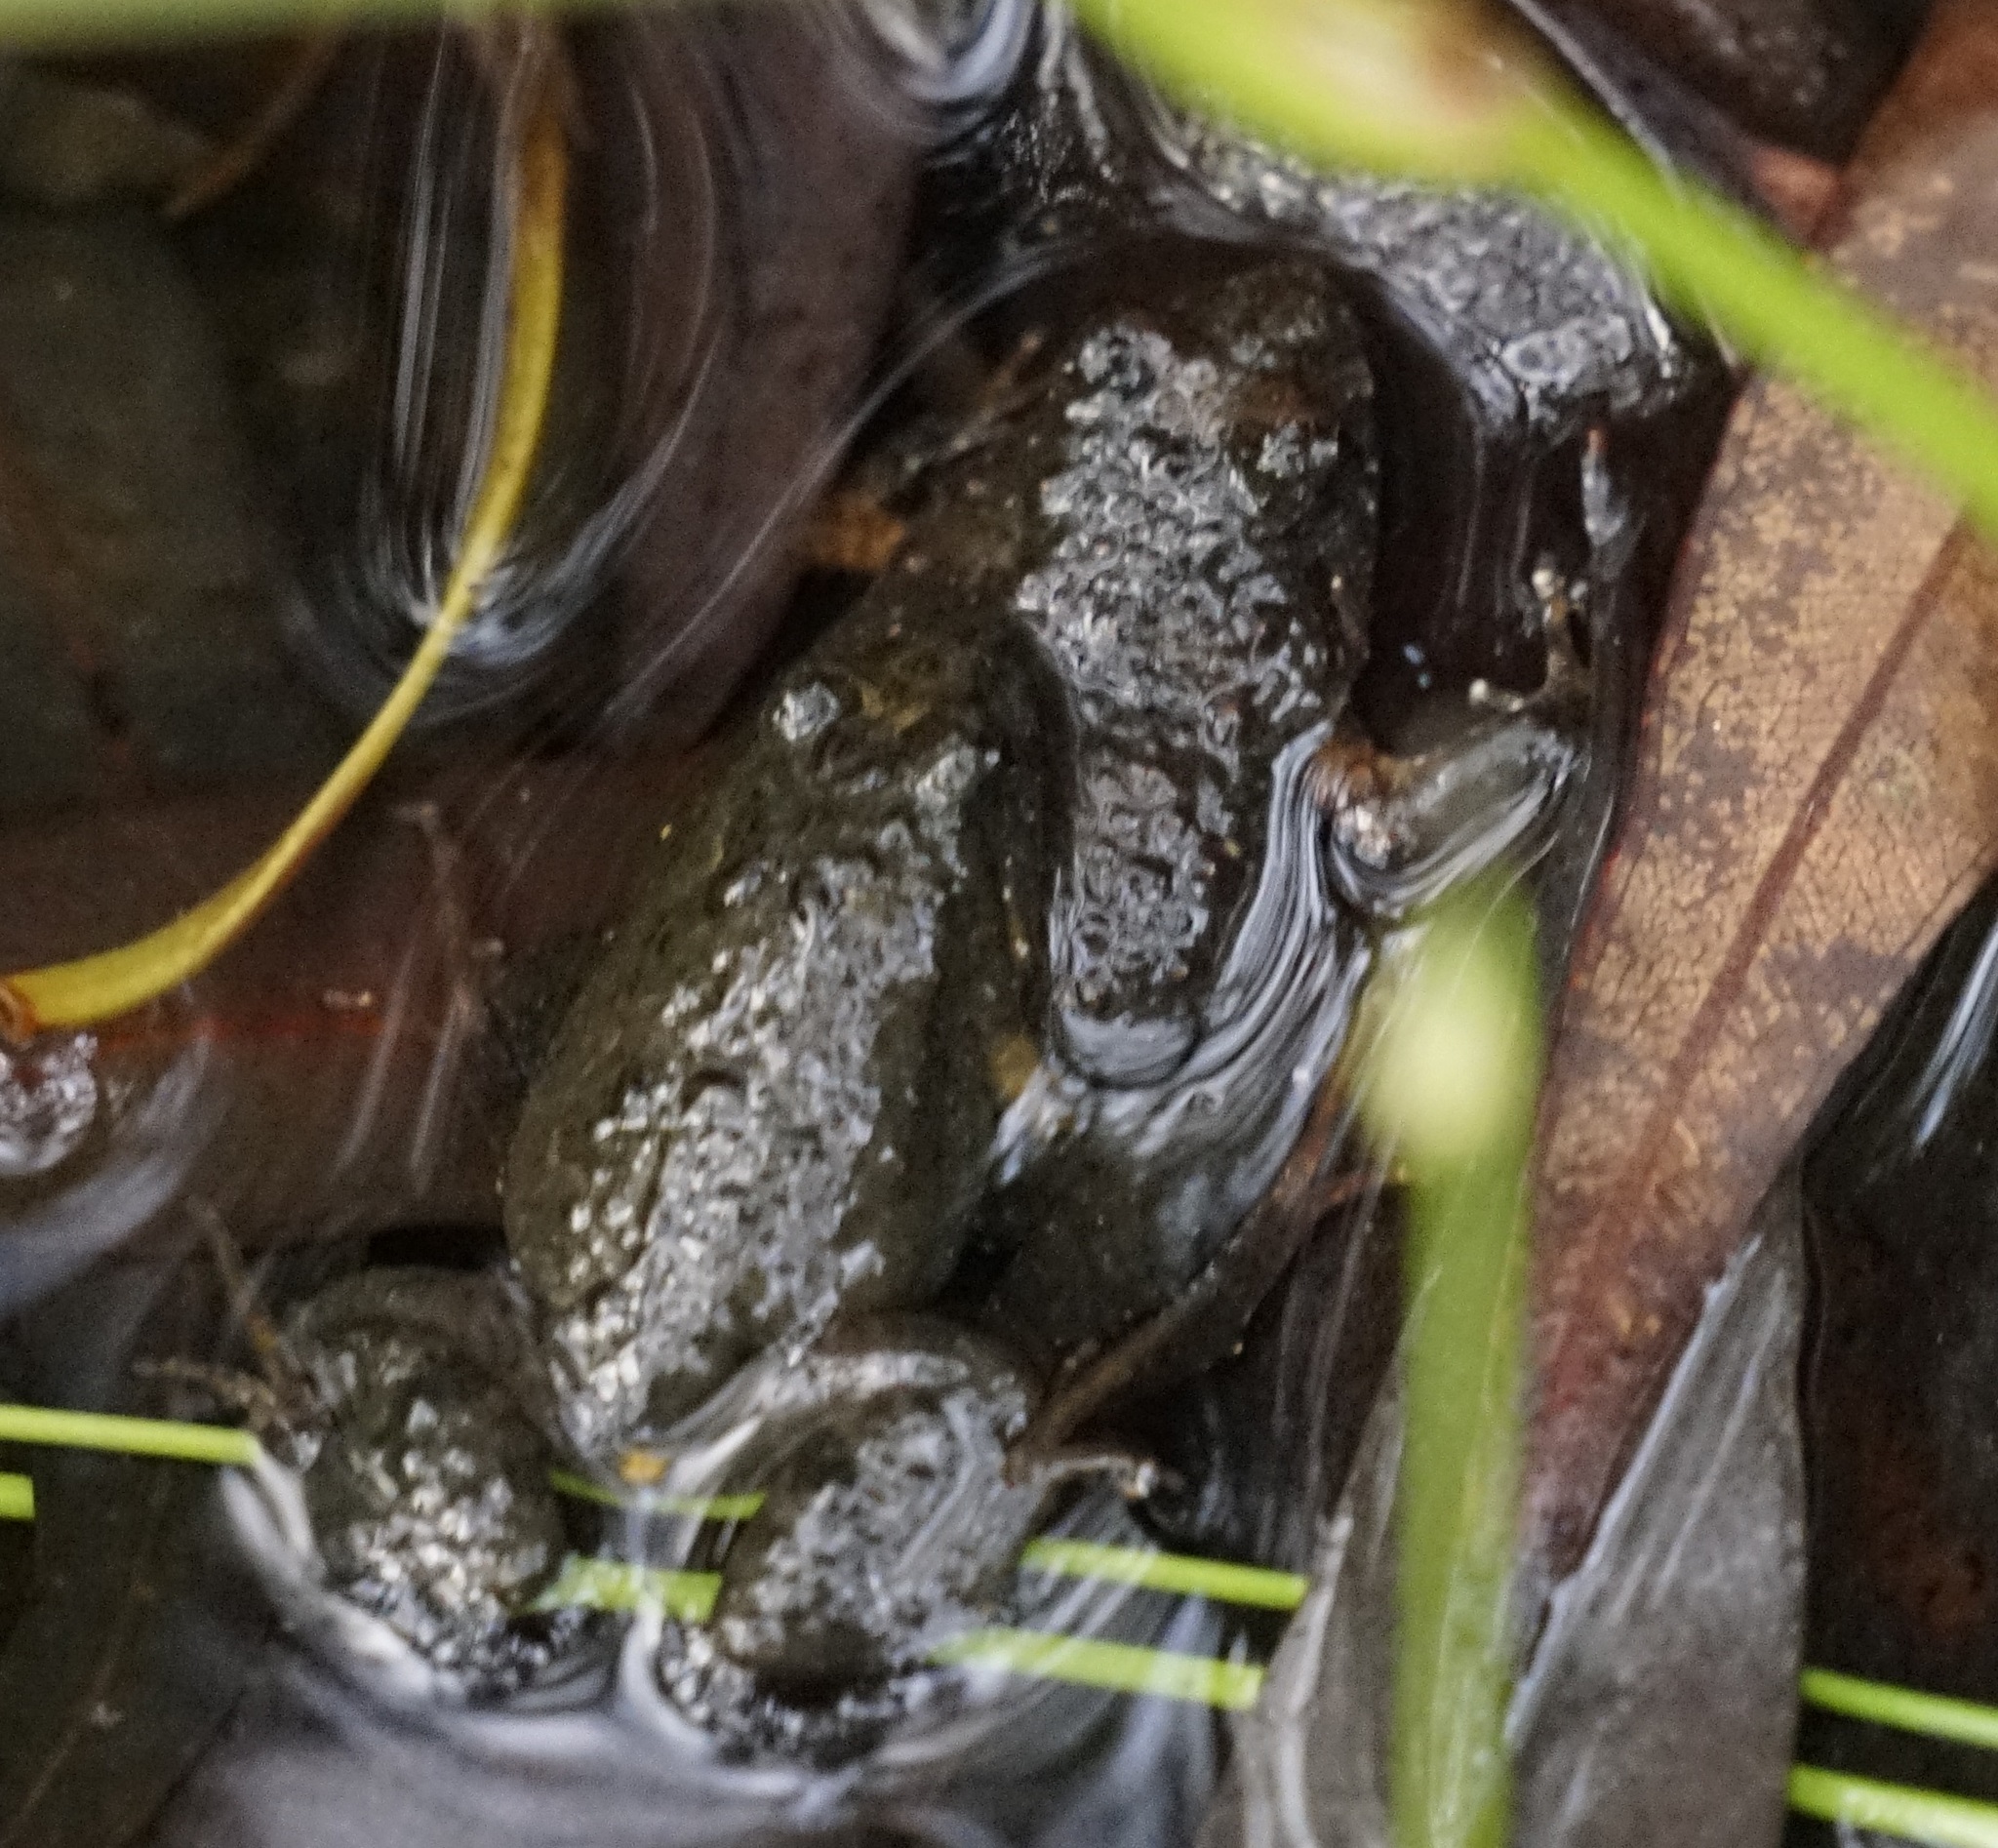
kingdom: Animalia
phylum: Chordata
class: Amphibia
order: Anura
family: Myobatrachidae
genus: Crinia
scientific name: Crinia signifera
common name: Brown froglet
